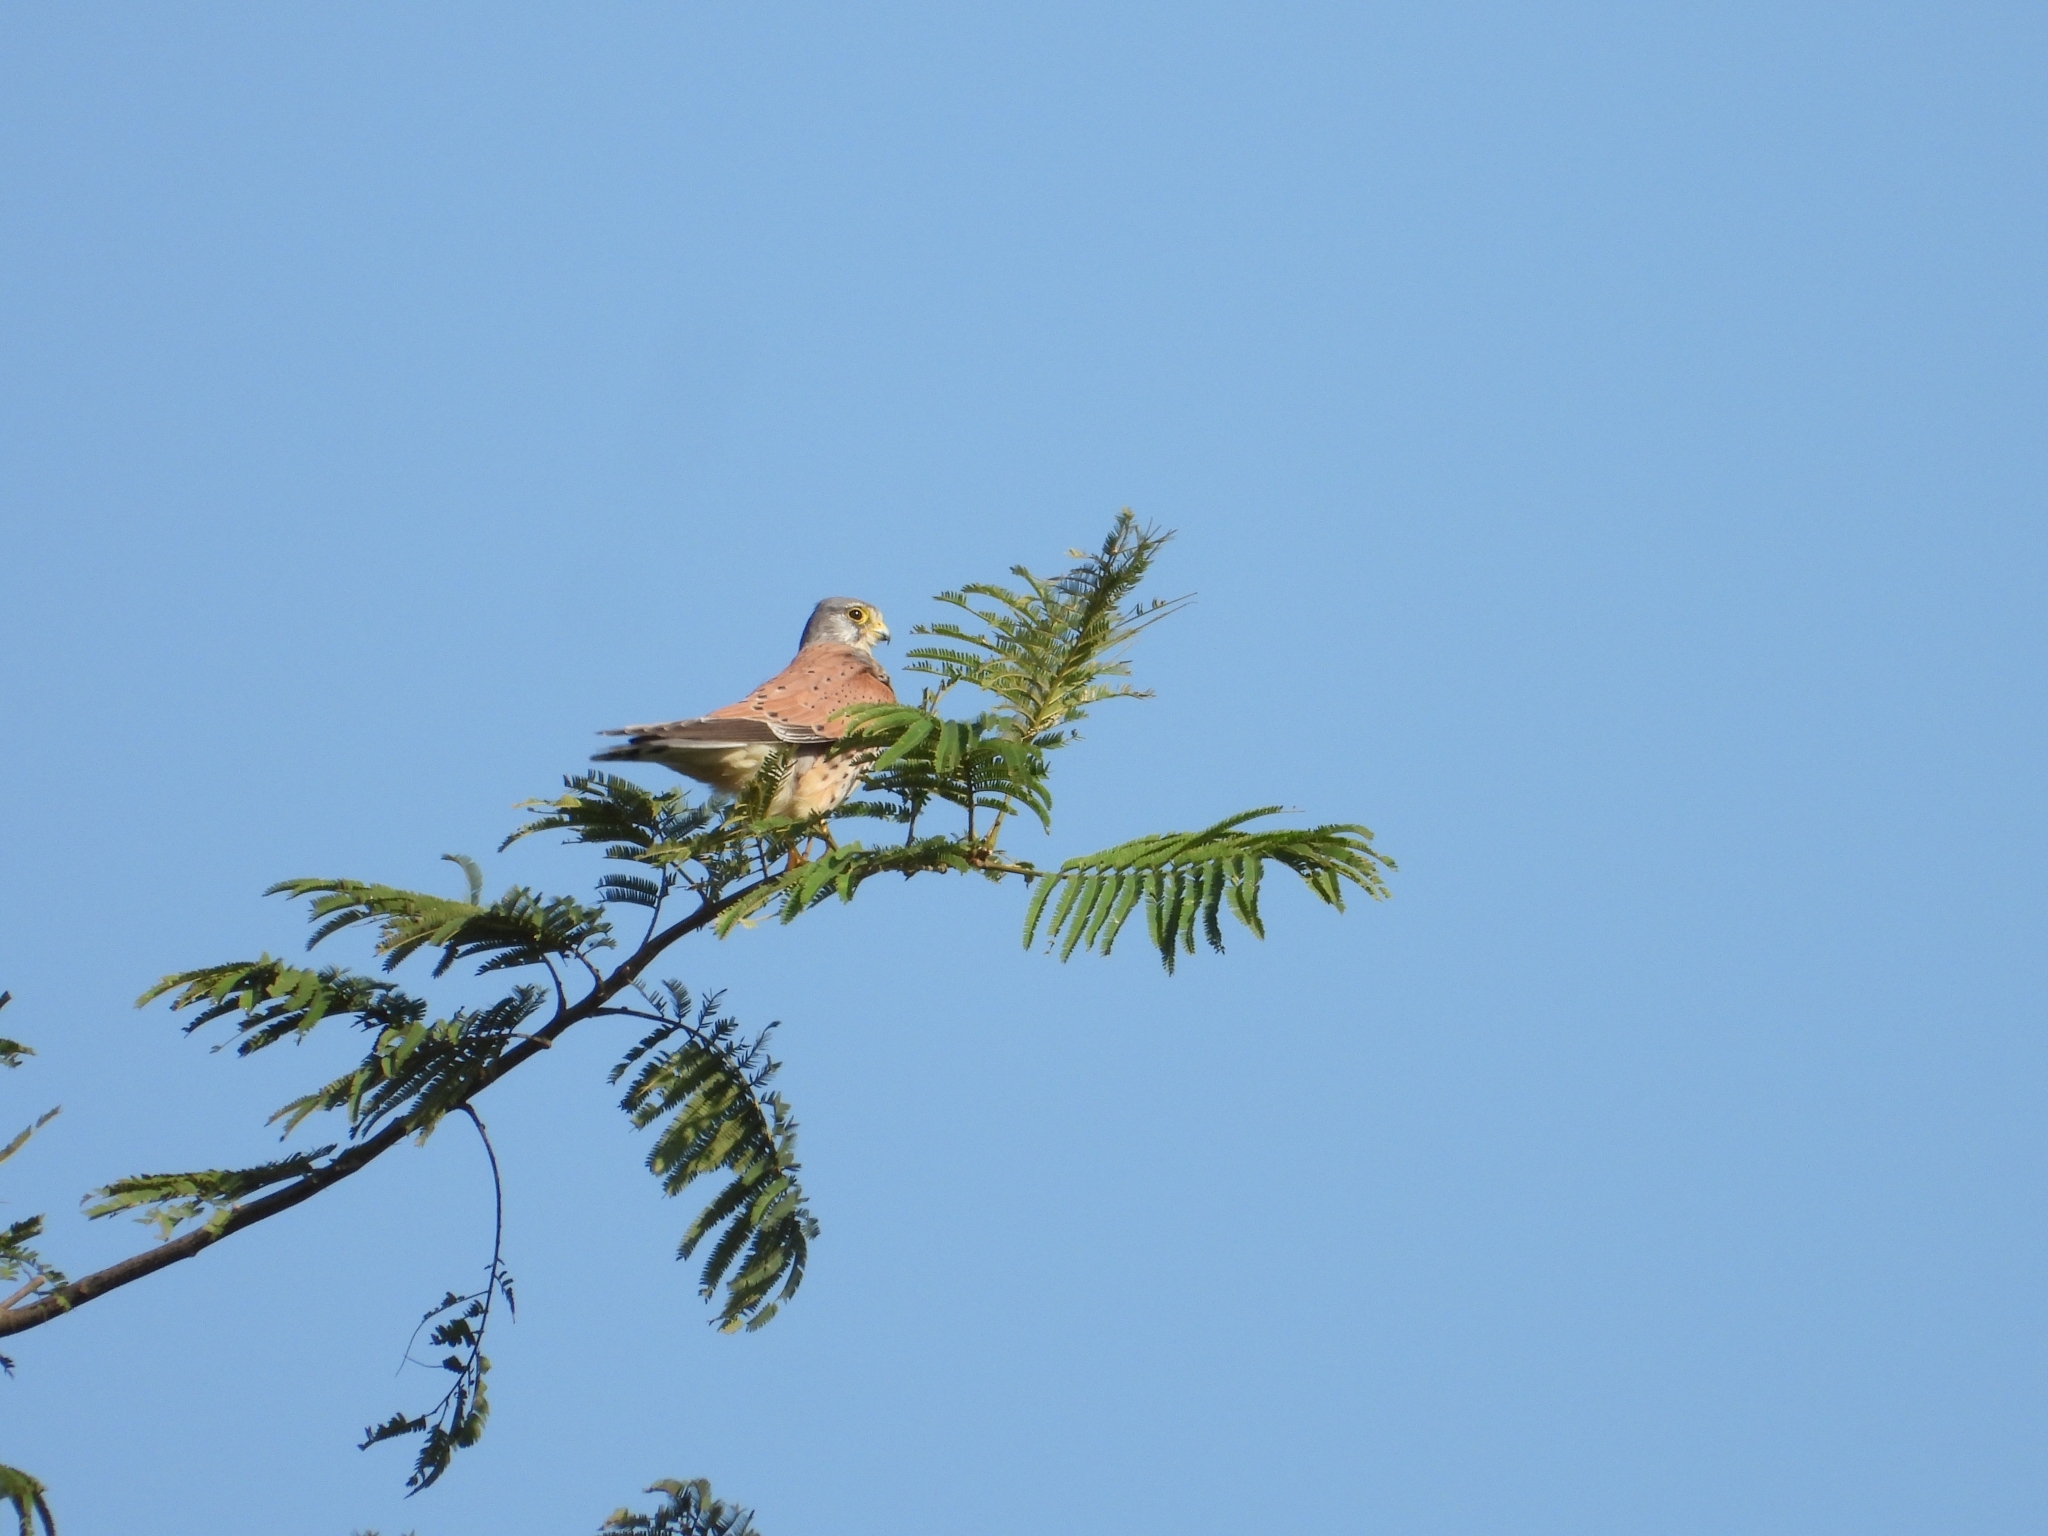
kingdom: Animalia
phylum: Chordata
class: Aves
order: Falconiformes
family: Falconidae
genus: Falco
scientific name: Falco tinnunculus
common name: Common kestrel
